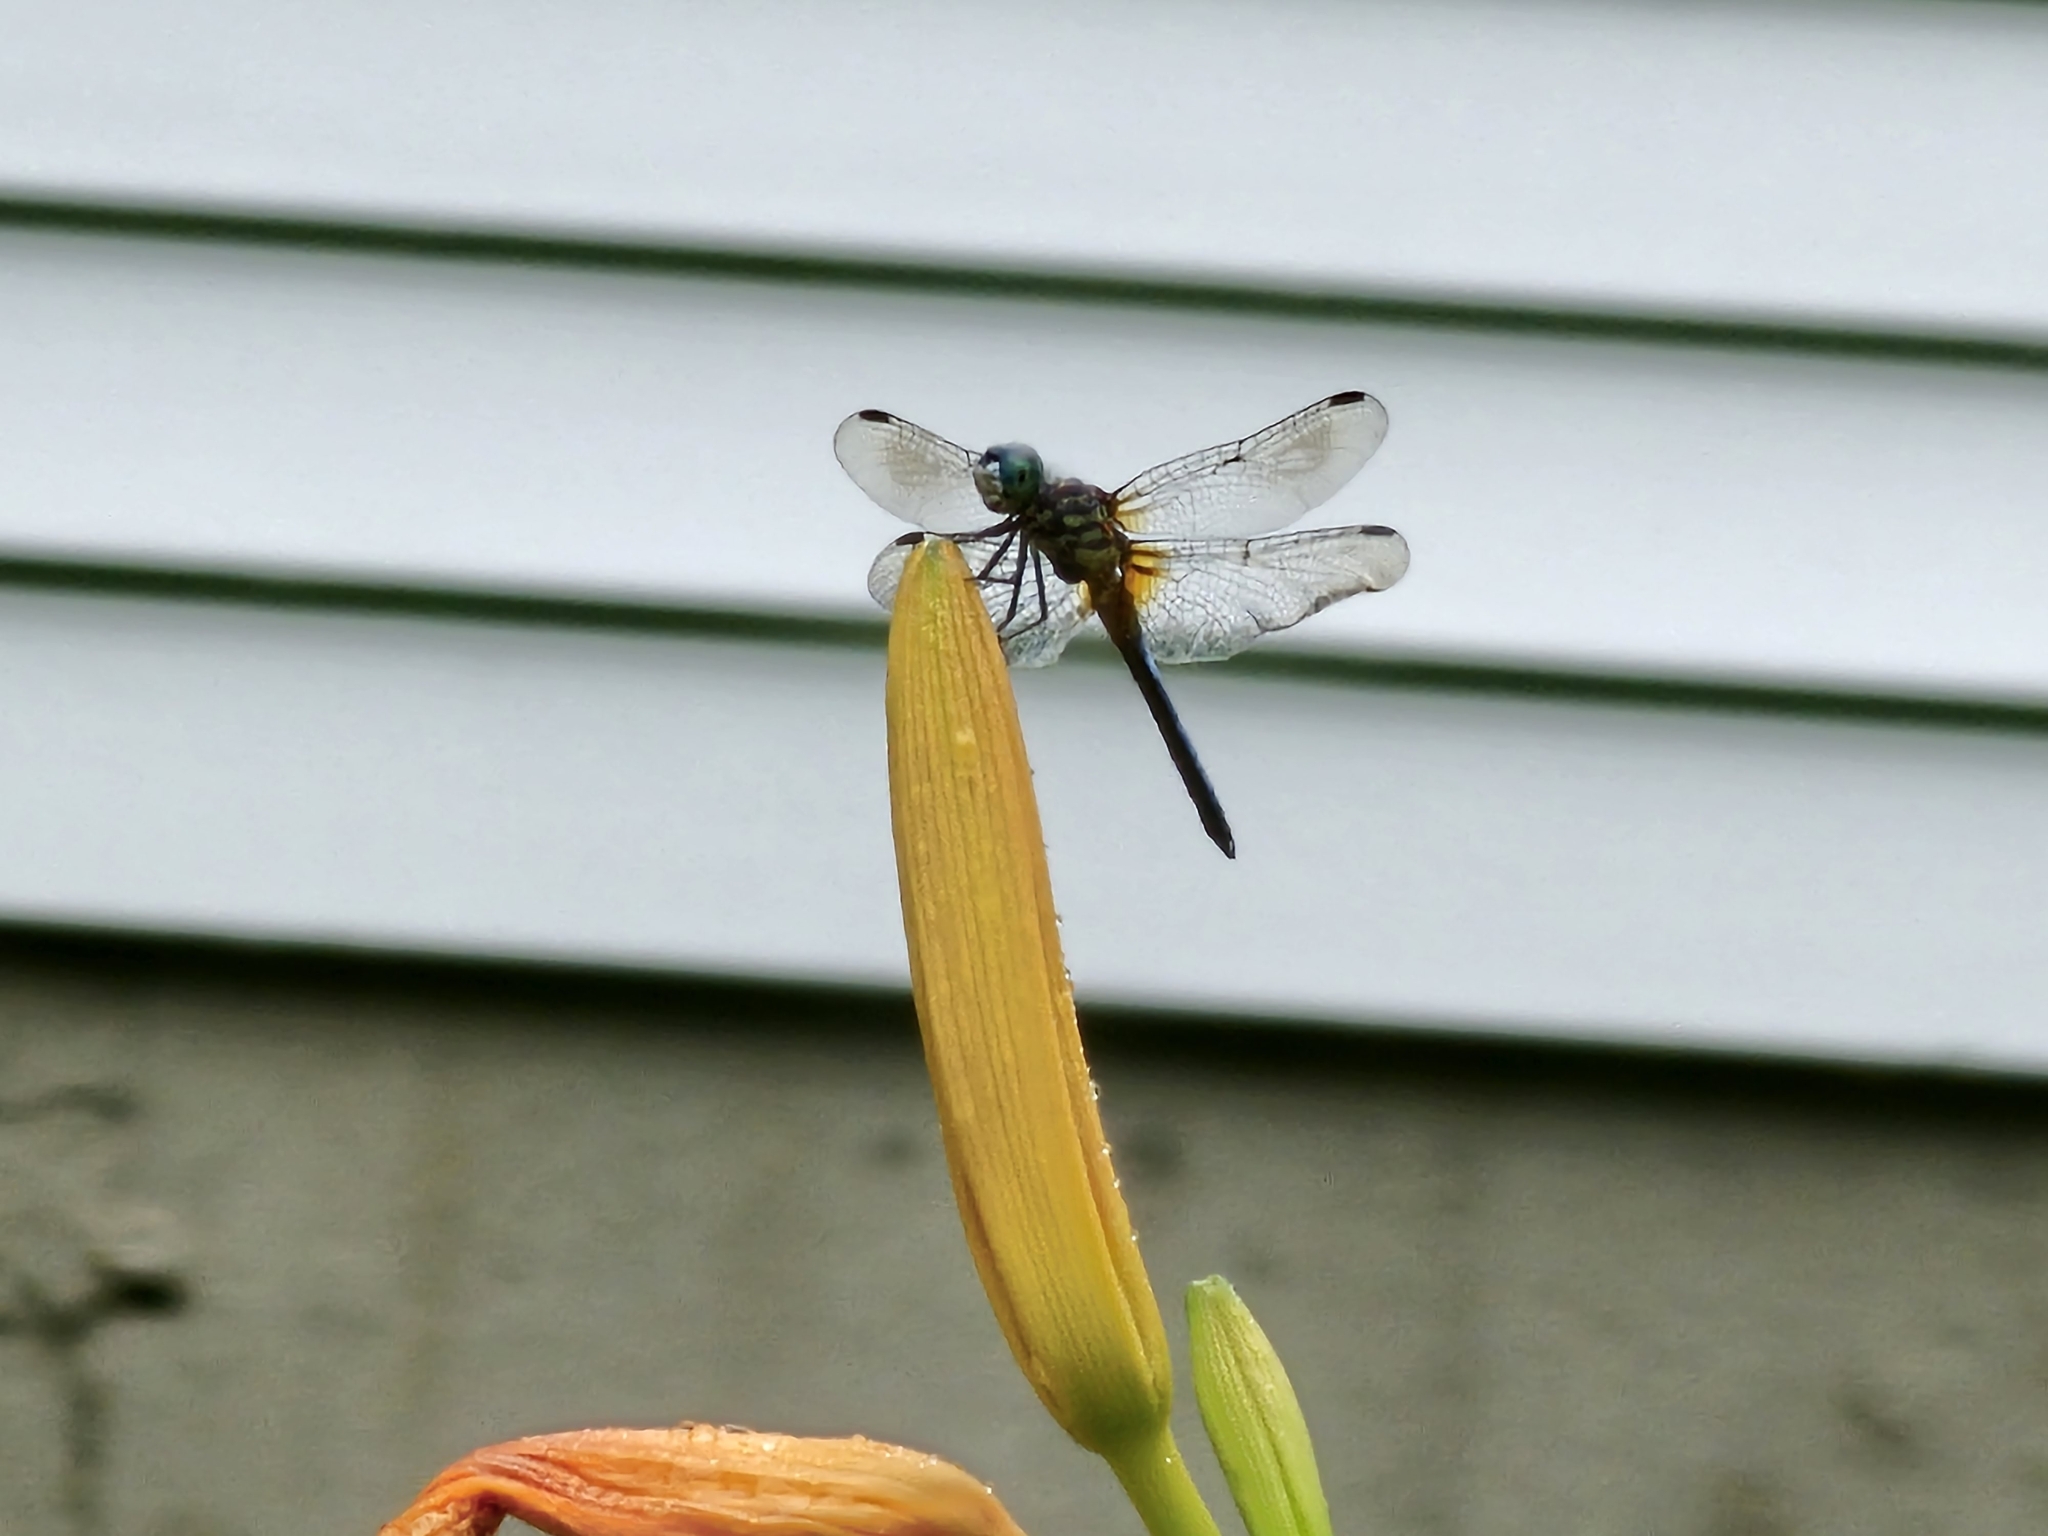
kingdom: Animalia
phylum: Arthropoda
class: Insecta
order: Odonata
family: Libellulidae
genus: Pachydiplax
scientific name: Pachydiplax longipennis
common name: Blue dasher
